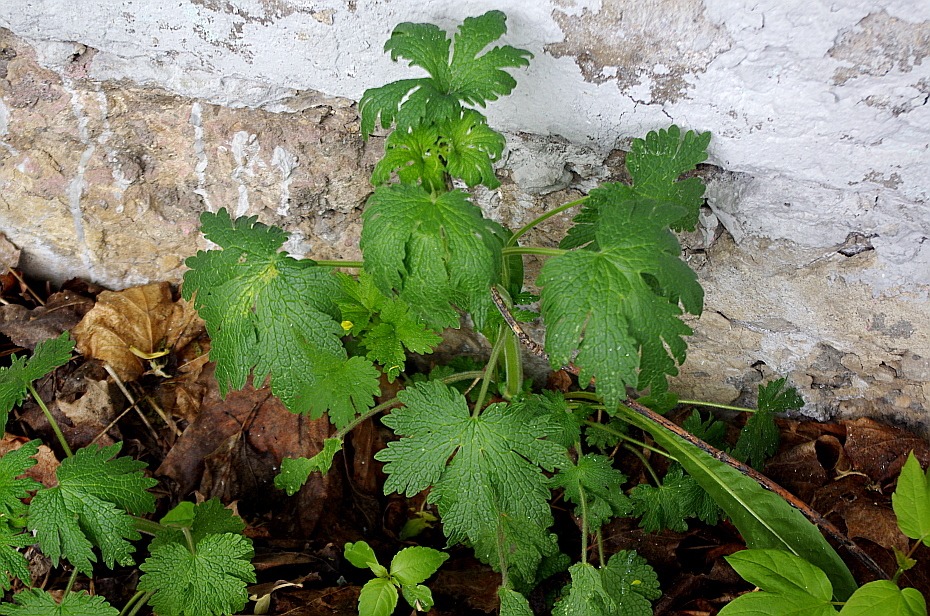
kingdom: Plantae
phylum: Tracheophyta
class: Magnoliopsida
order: Lamiales
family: Lamiaceae
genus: Leonurus
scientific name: Leonurus quinquelobatus
